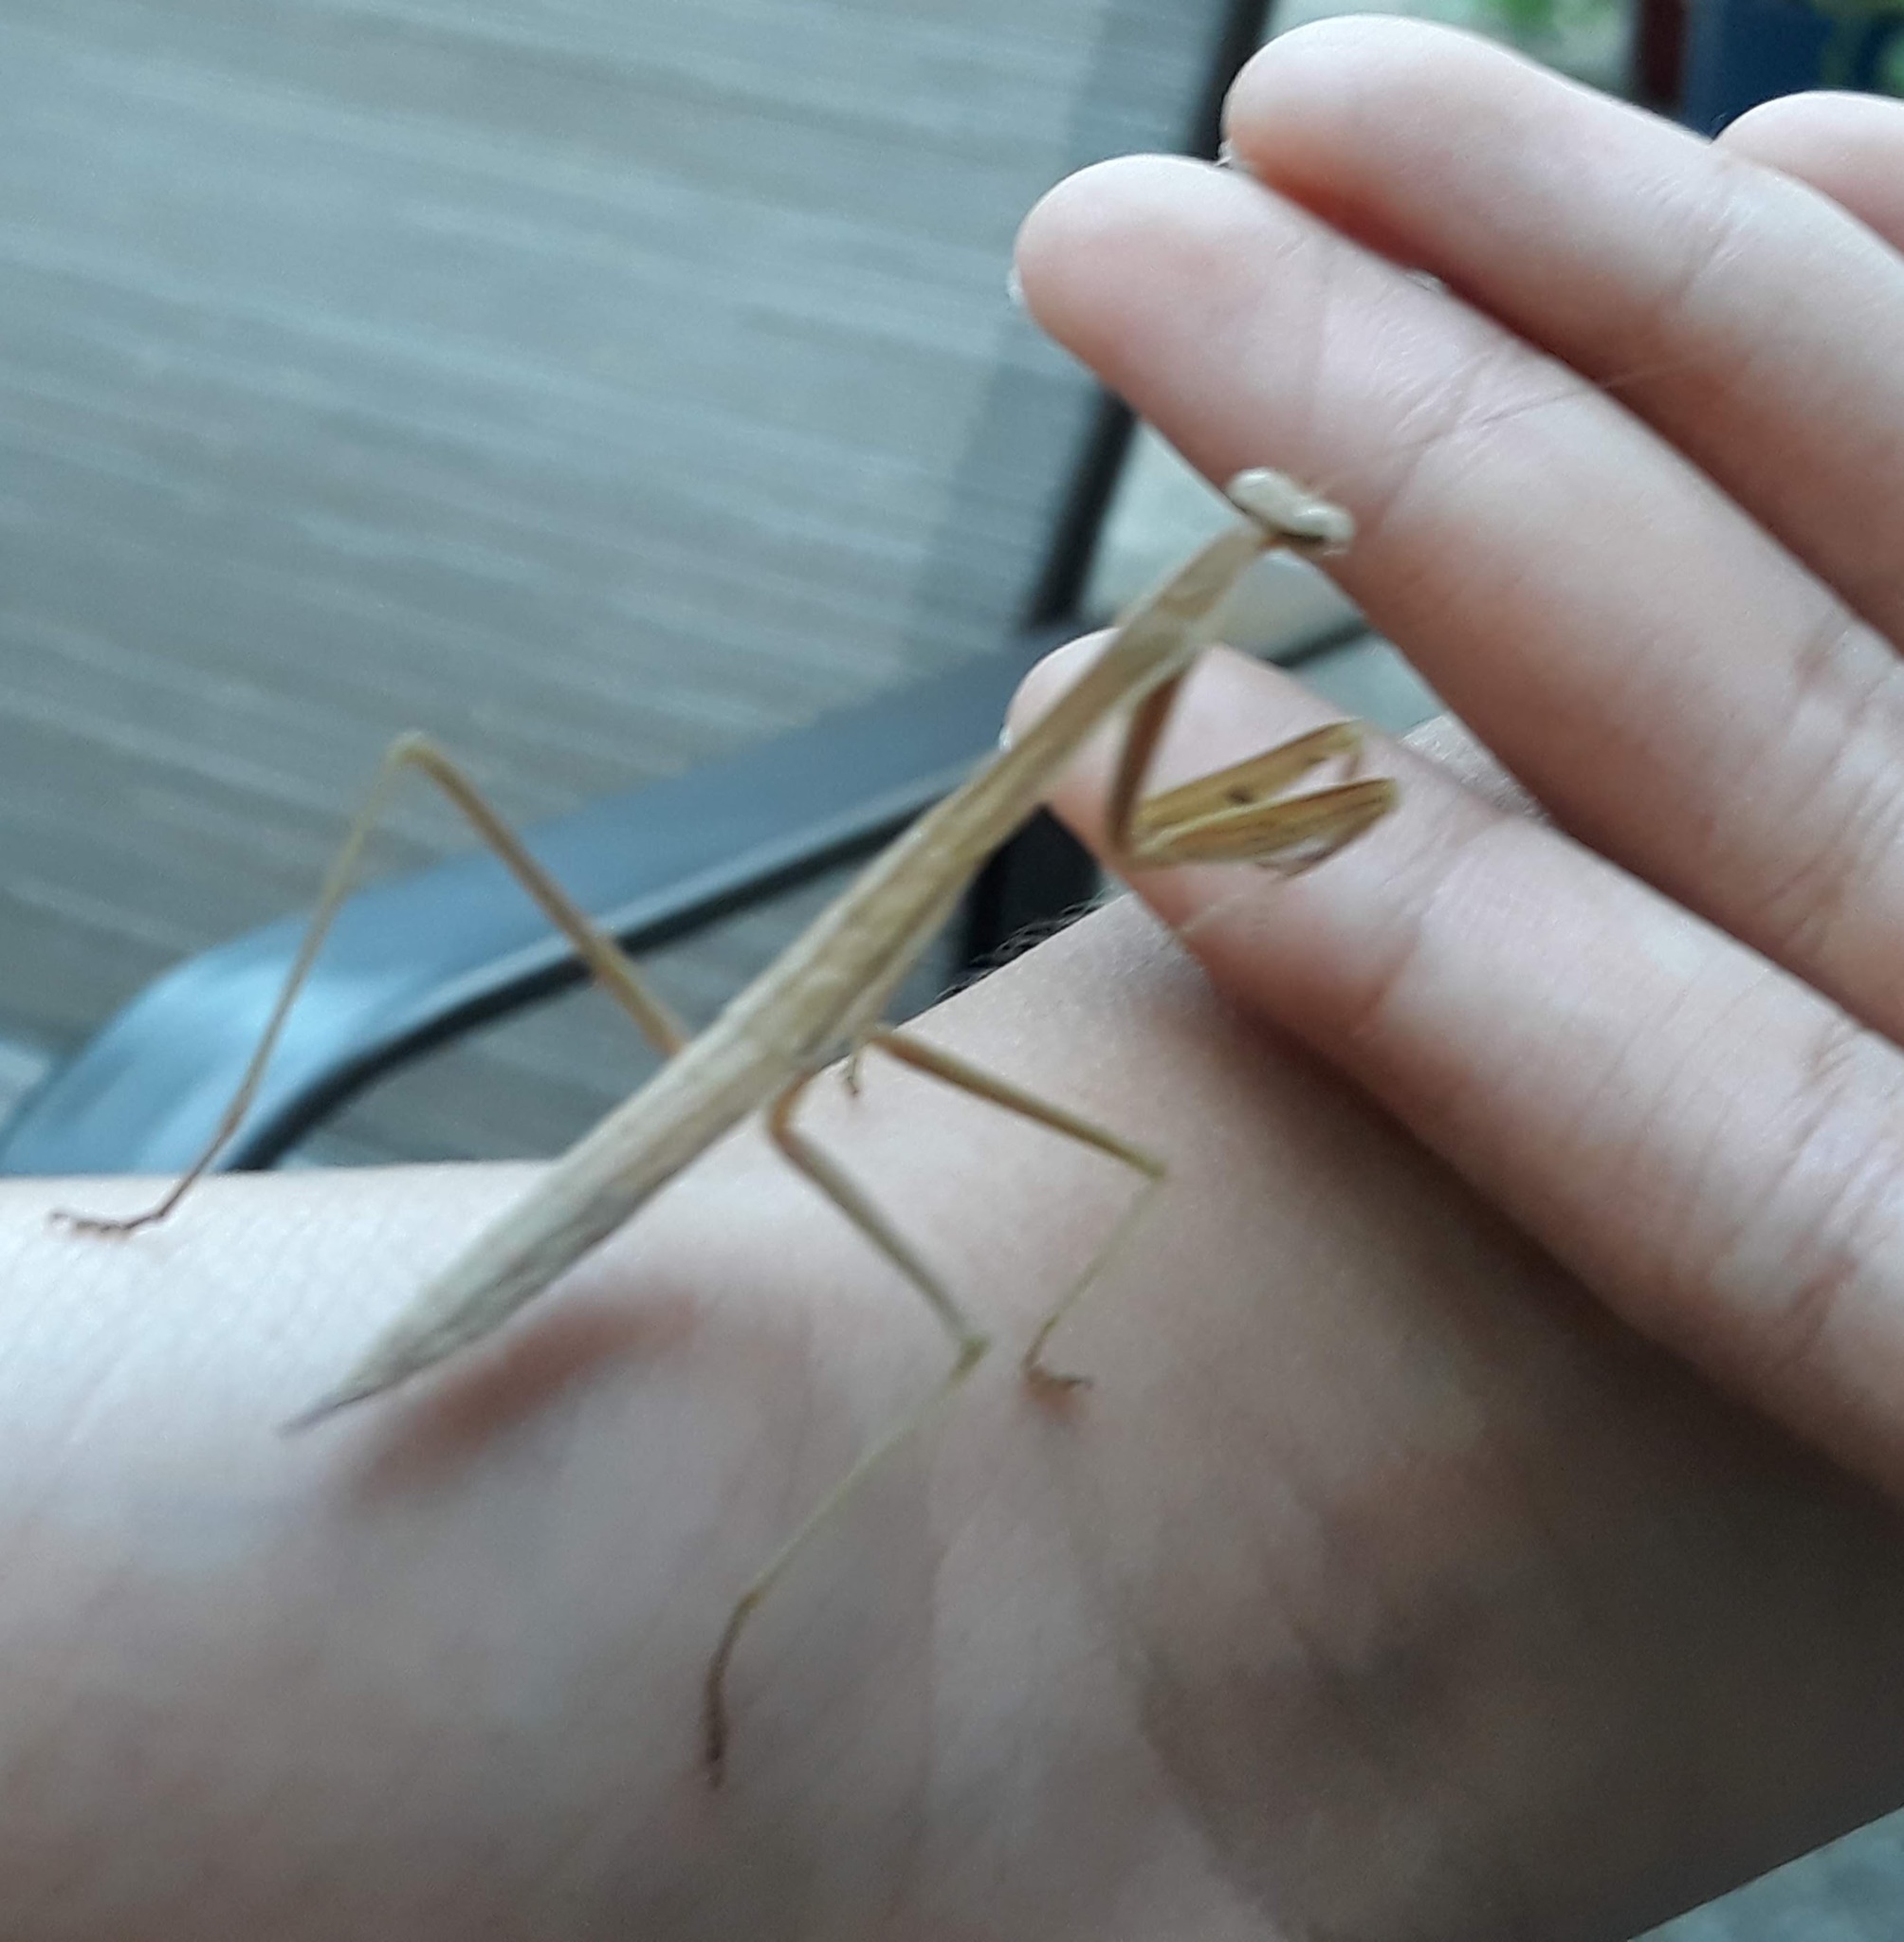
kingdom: Animalia
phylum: Arthropoda
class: Insecta
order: Mantodea
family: Mantidae
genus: Tenodera
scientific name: Tenodera sinensis
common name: Chinese mantis
